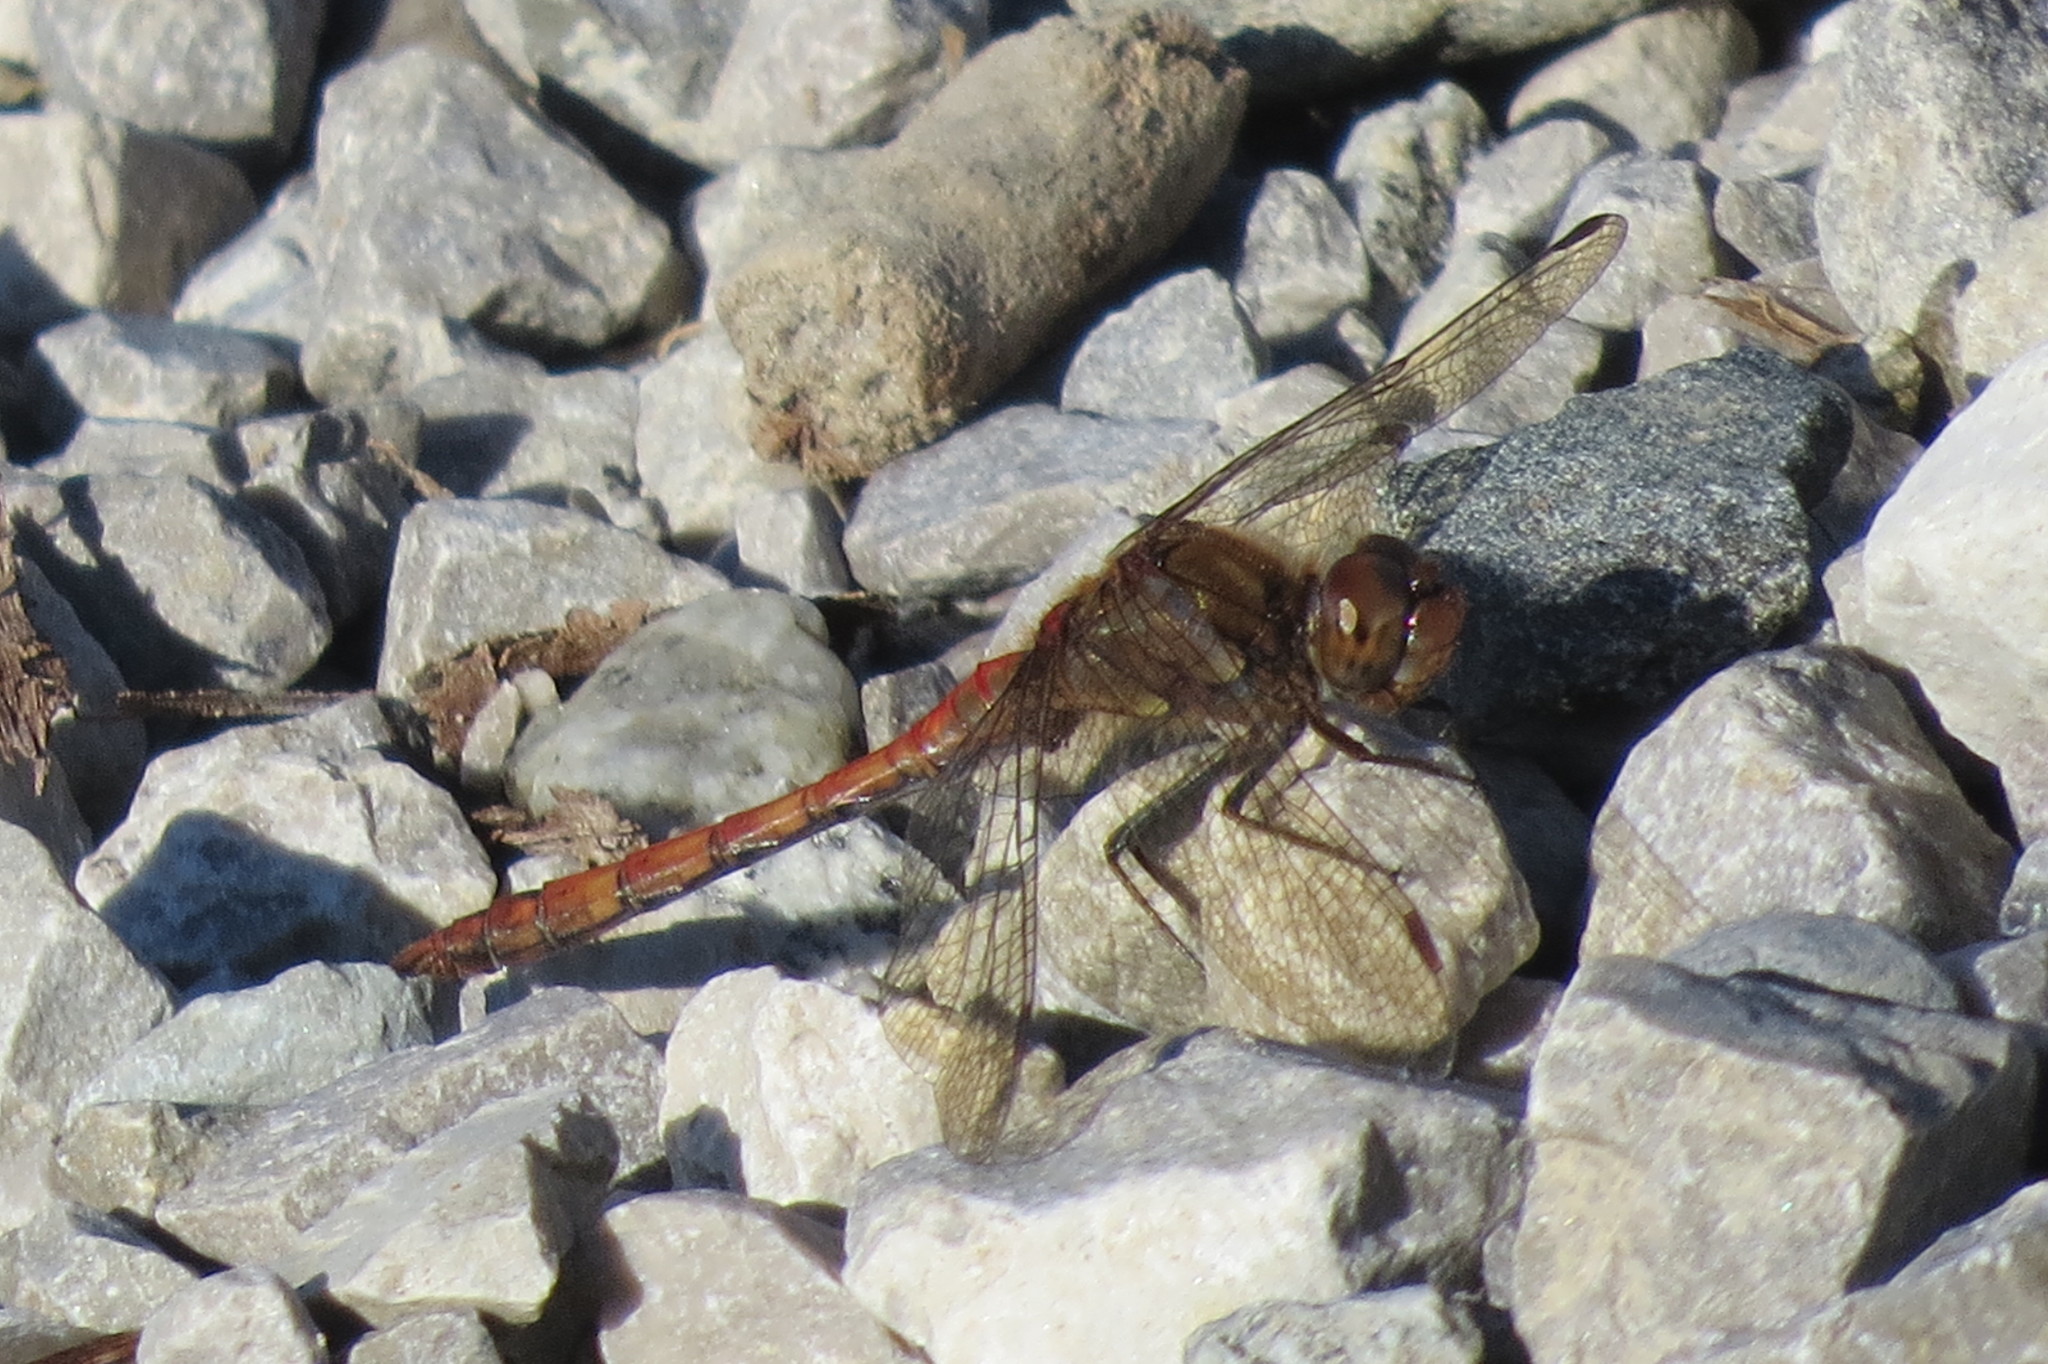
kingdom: Animalia
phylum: Arthropoda
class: Insecta
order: Odonata
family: Libellulidae
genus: Sympetrum
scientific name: Sympetrum striolatum
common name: Common darter
